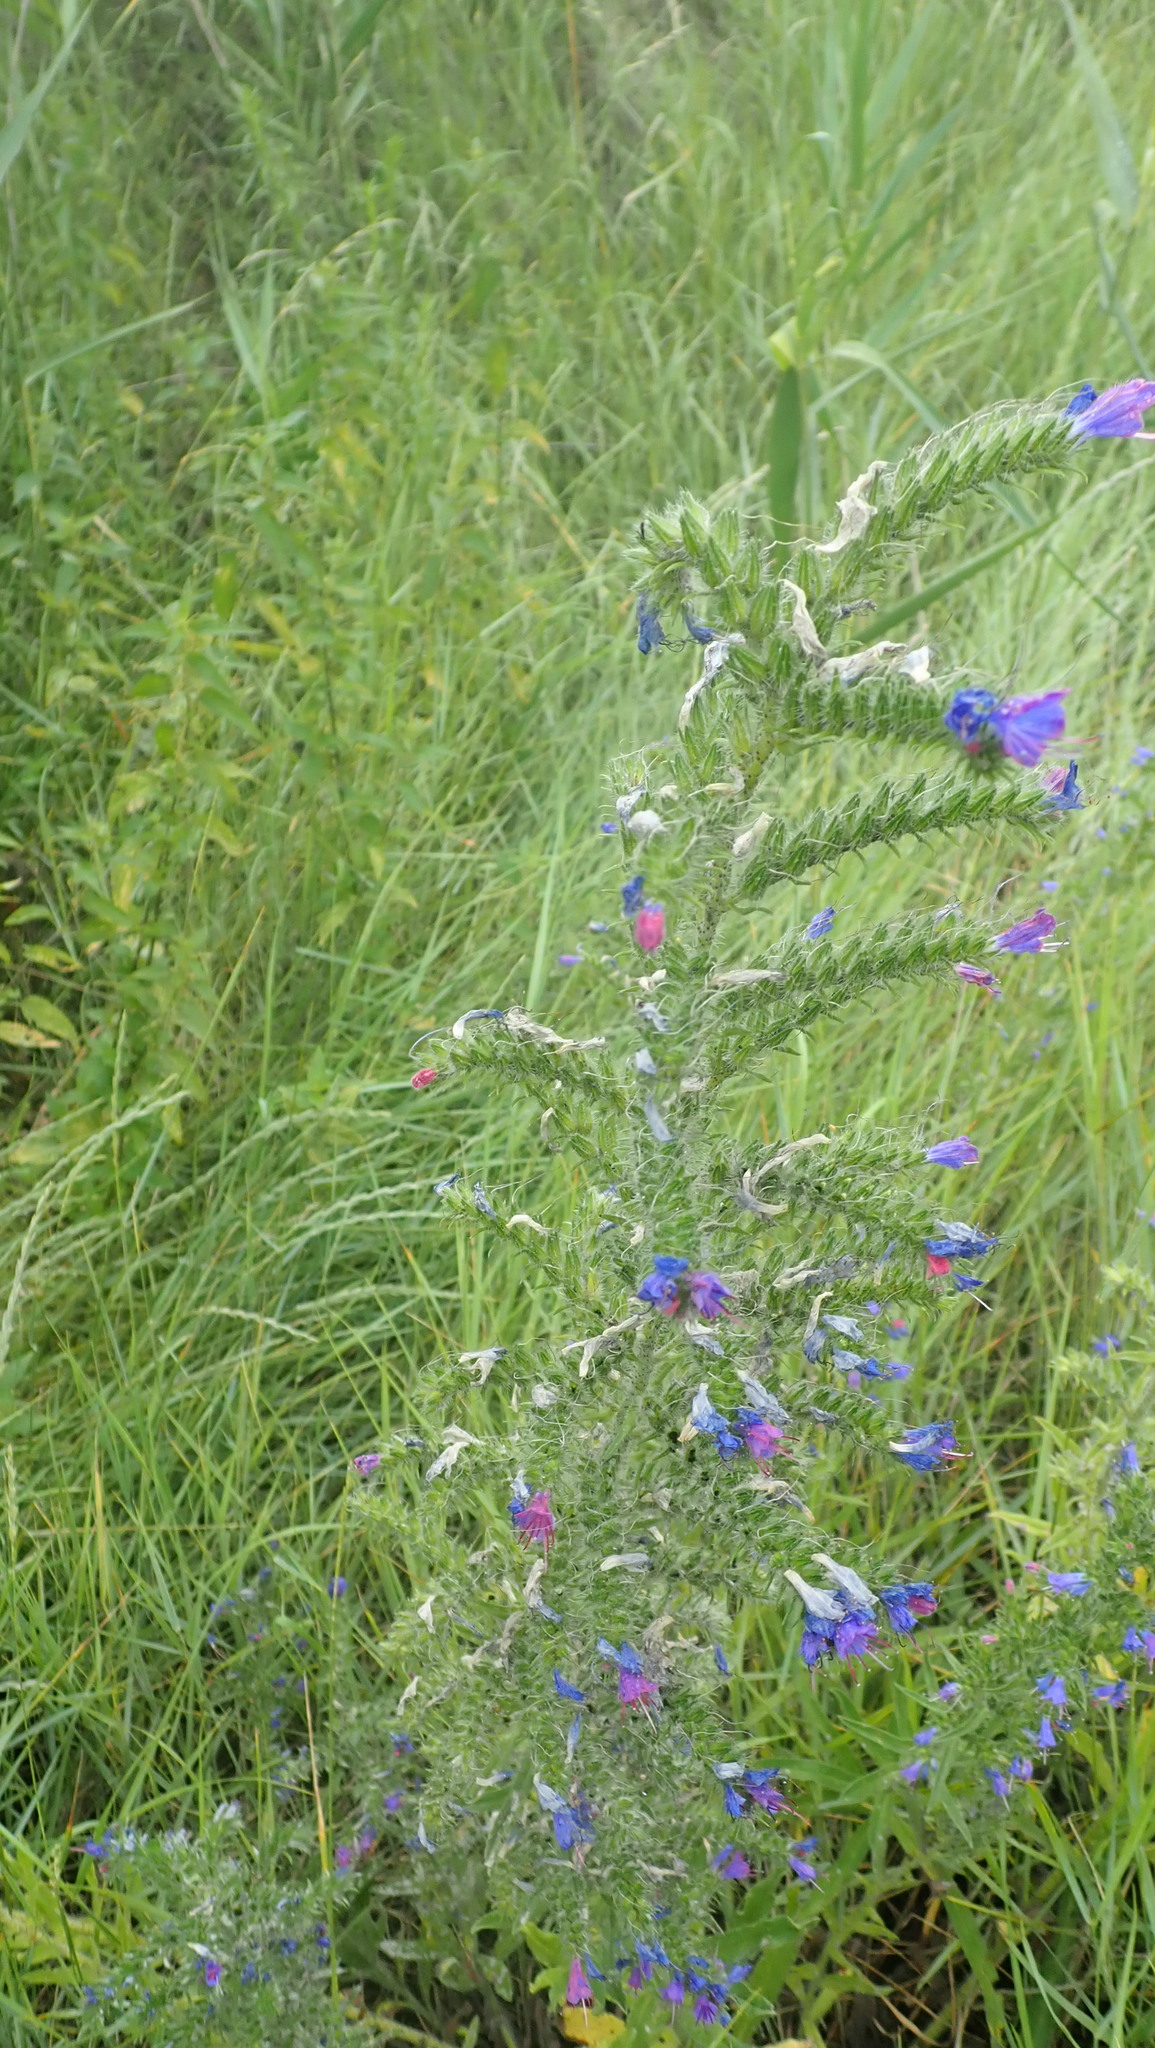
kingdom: Plantae
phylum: Tracheophyta
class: Magnoliopsida
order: Boraginales
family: Boraginaceae
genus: Echium
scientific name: Echium vulgare
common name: Common viper's bugloss
